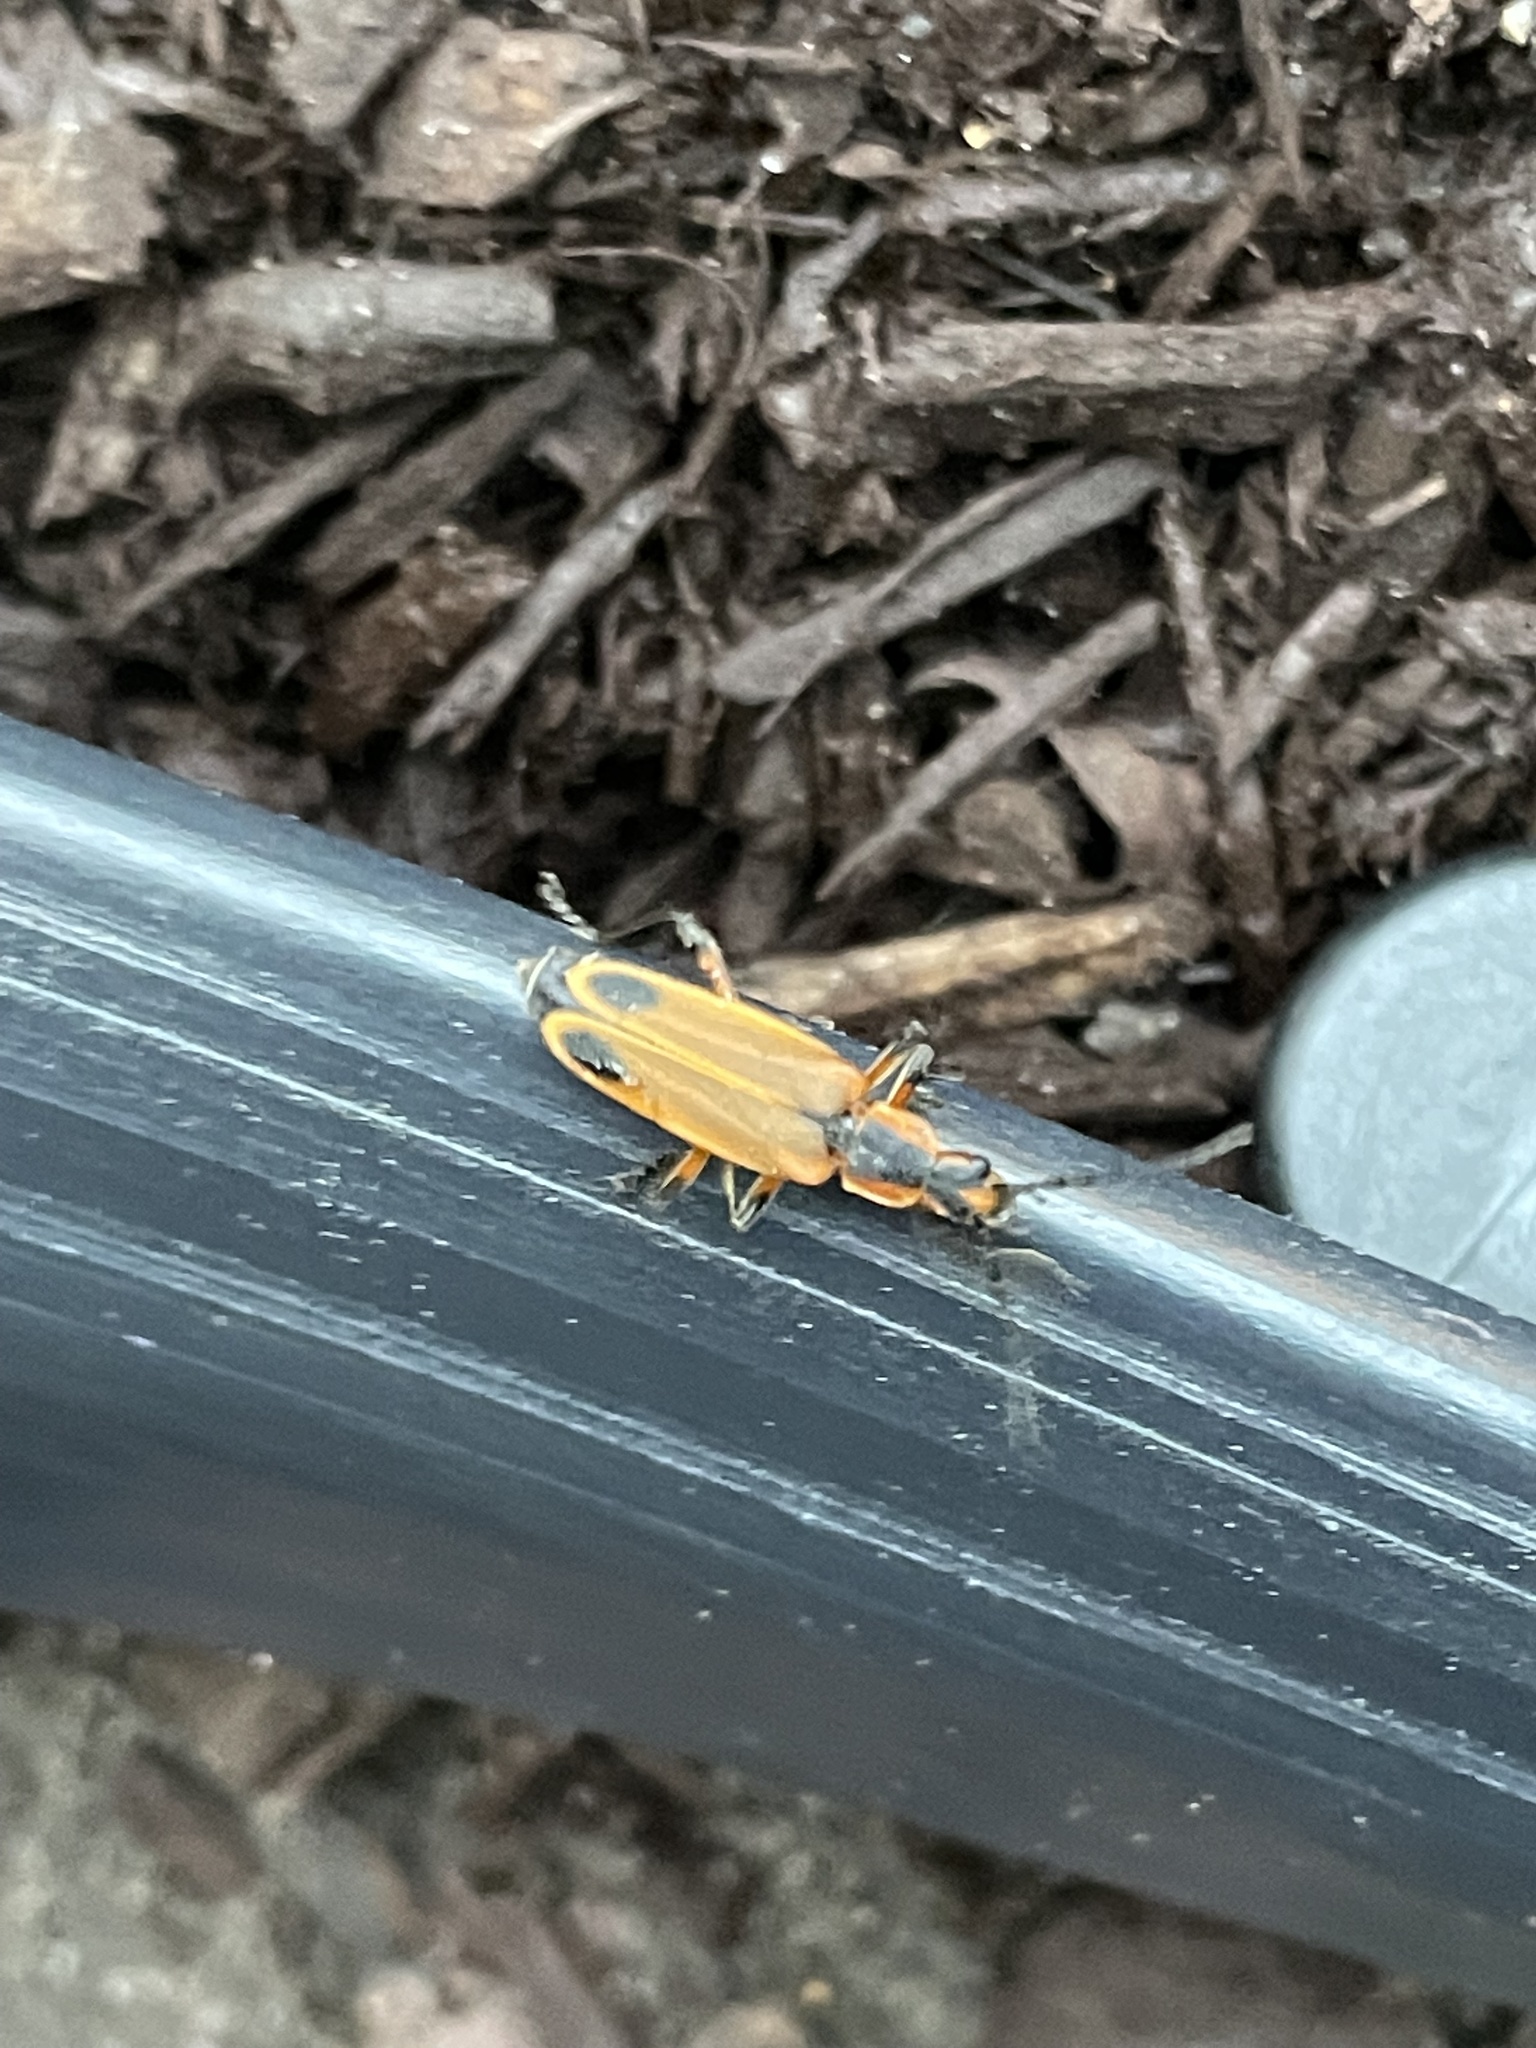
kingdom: Animalia
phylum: Arthropoda
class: Insecta
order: Coleoptera
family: Cantharidae
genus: Chauliognathus
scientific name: Chauliognathus marginatus
